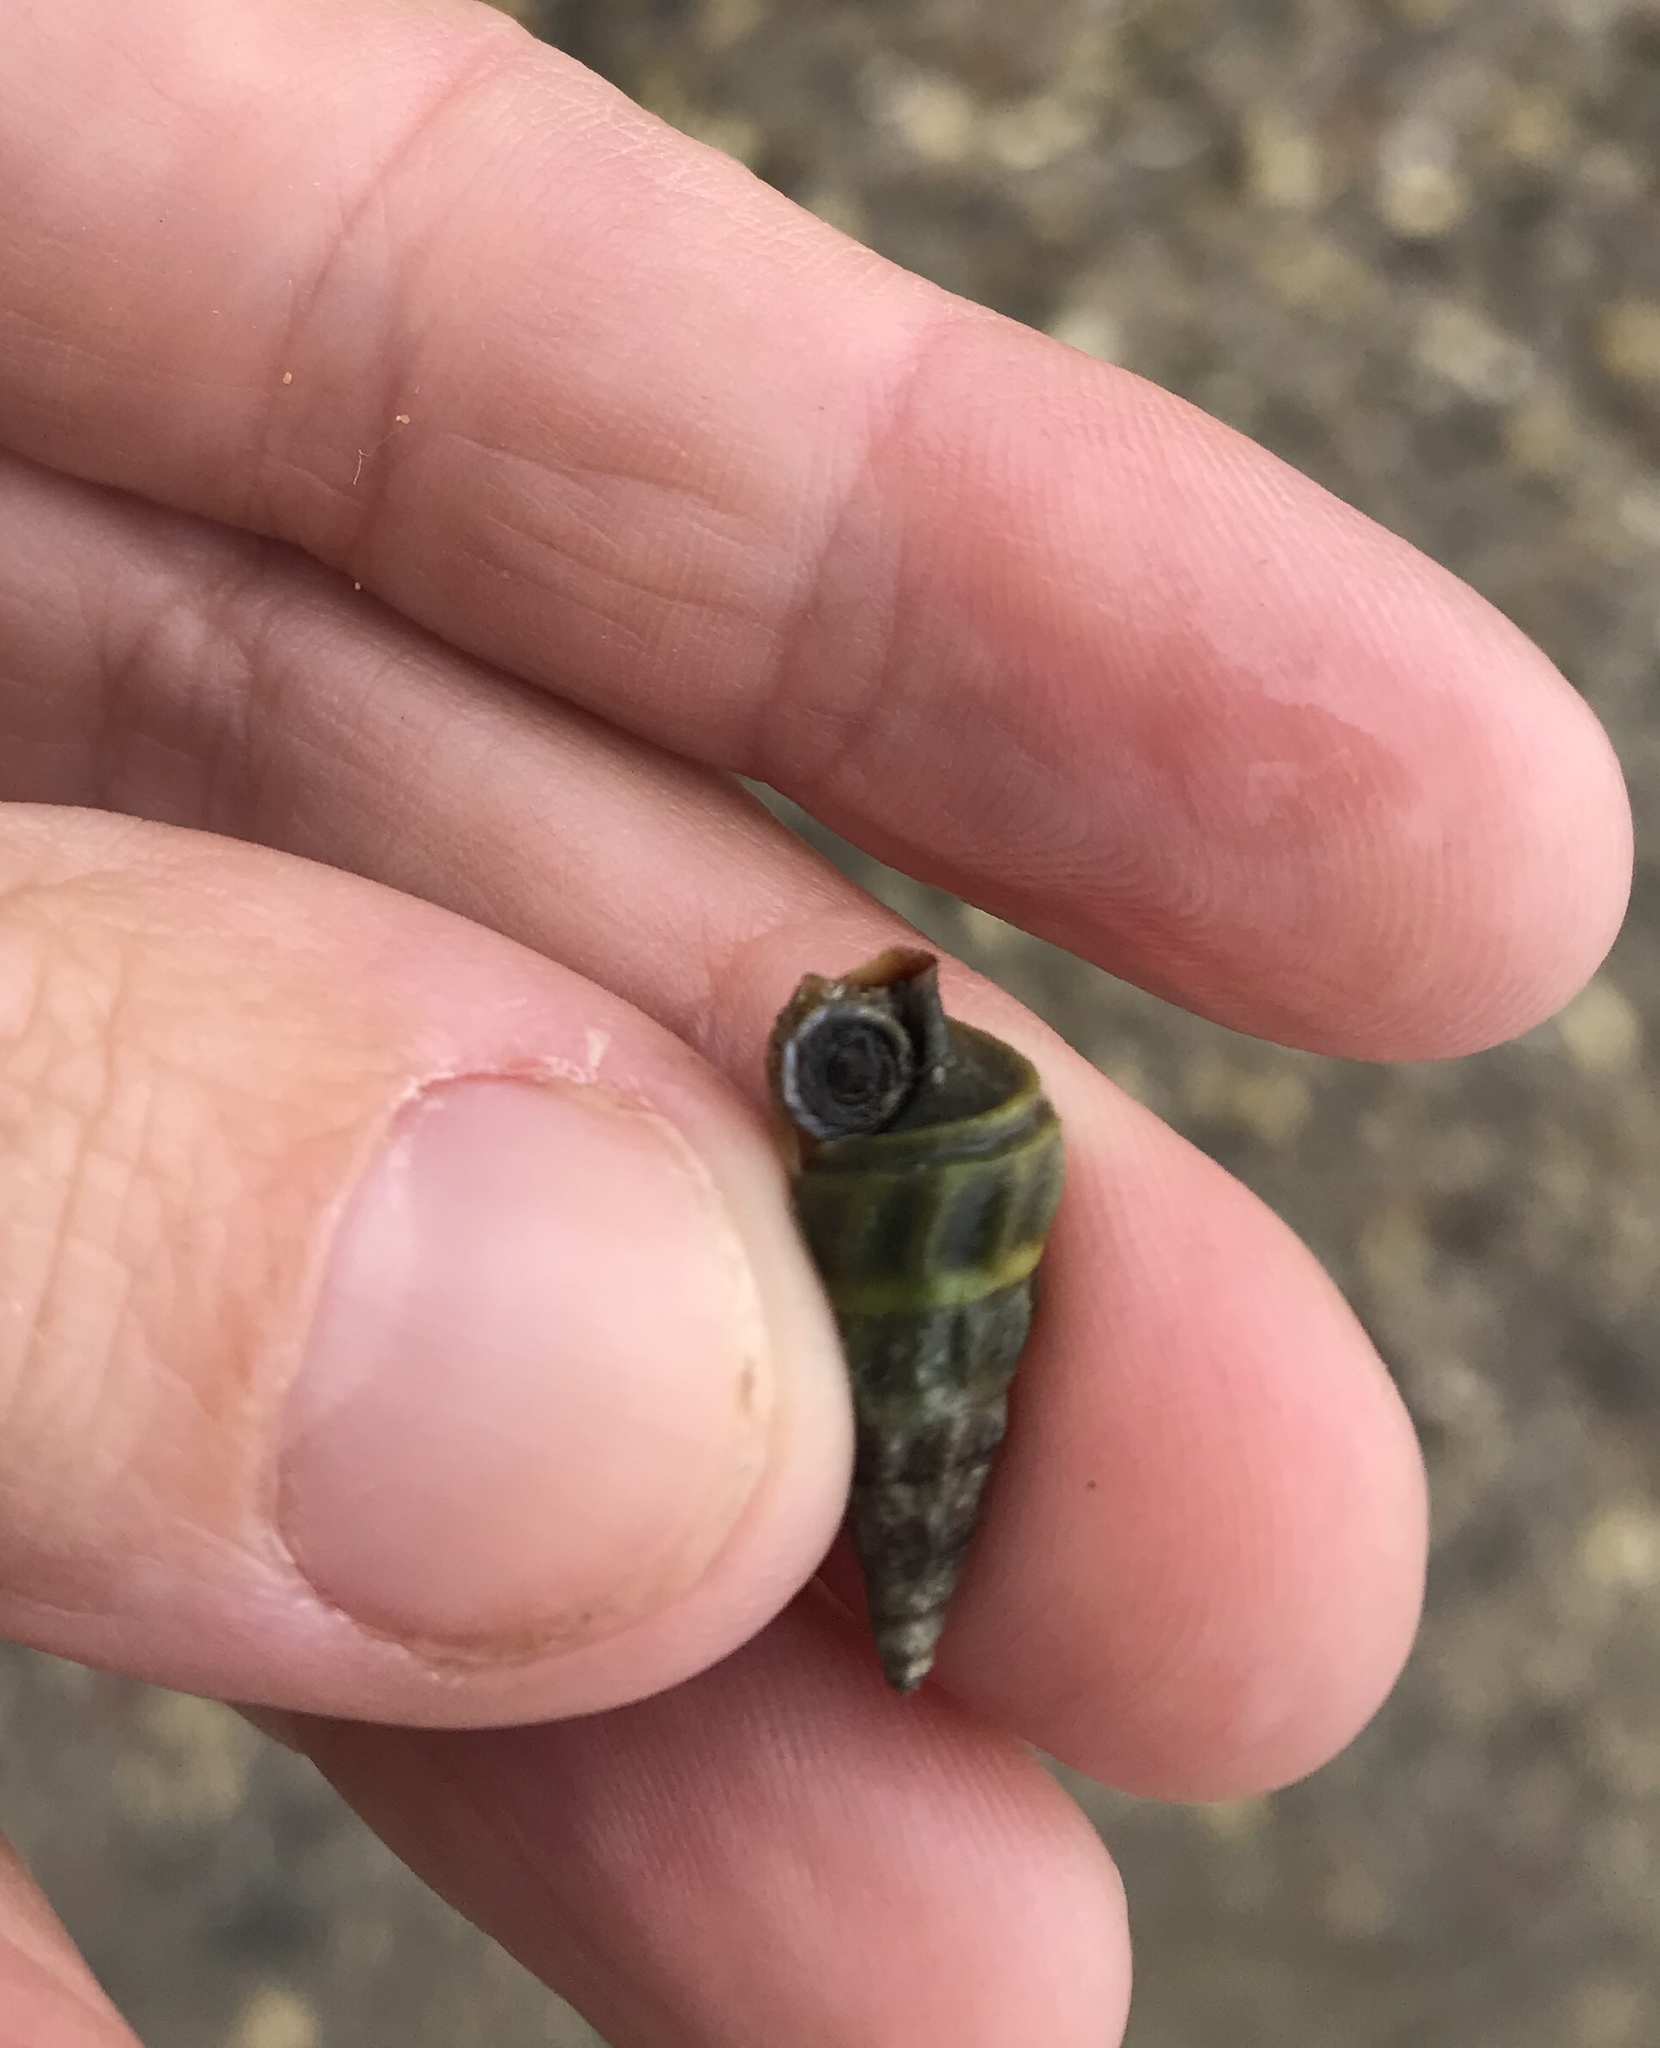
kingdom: Animalia
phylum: Mollusca
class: Gastropoda
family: Batillariidae
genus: Zeacumantus
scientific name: Zeacumantus lutulentus
